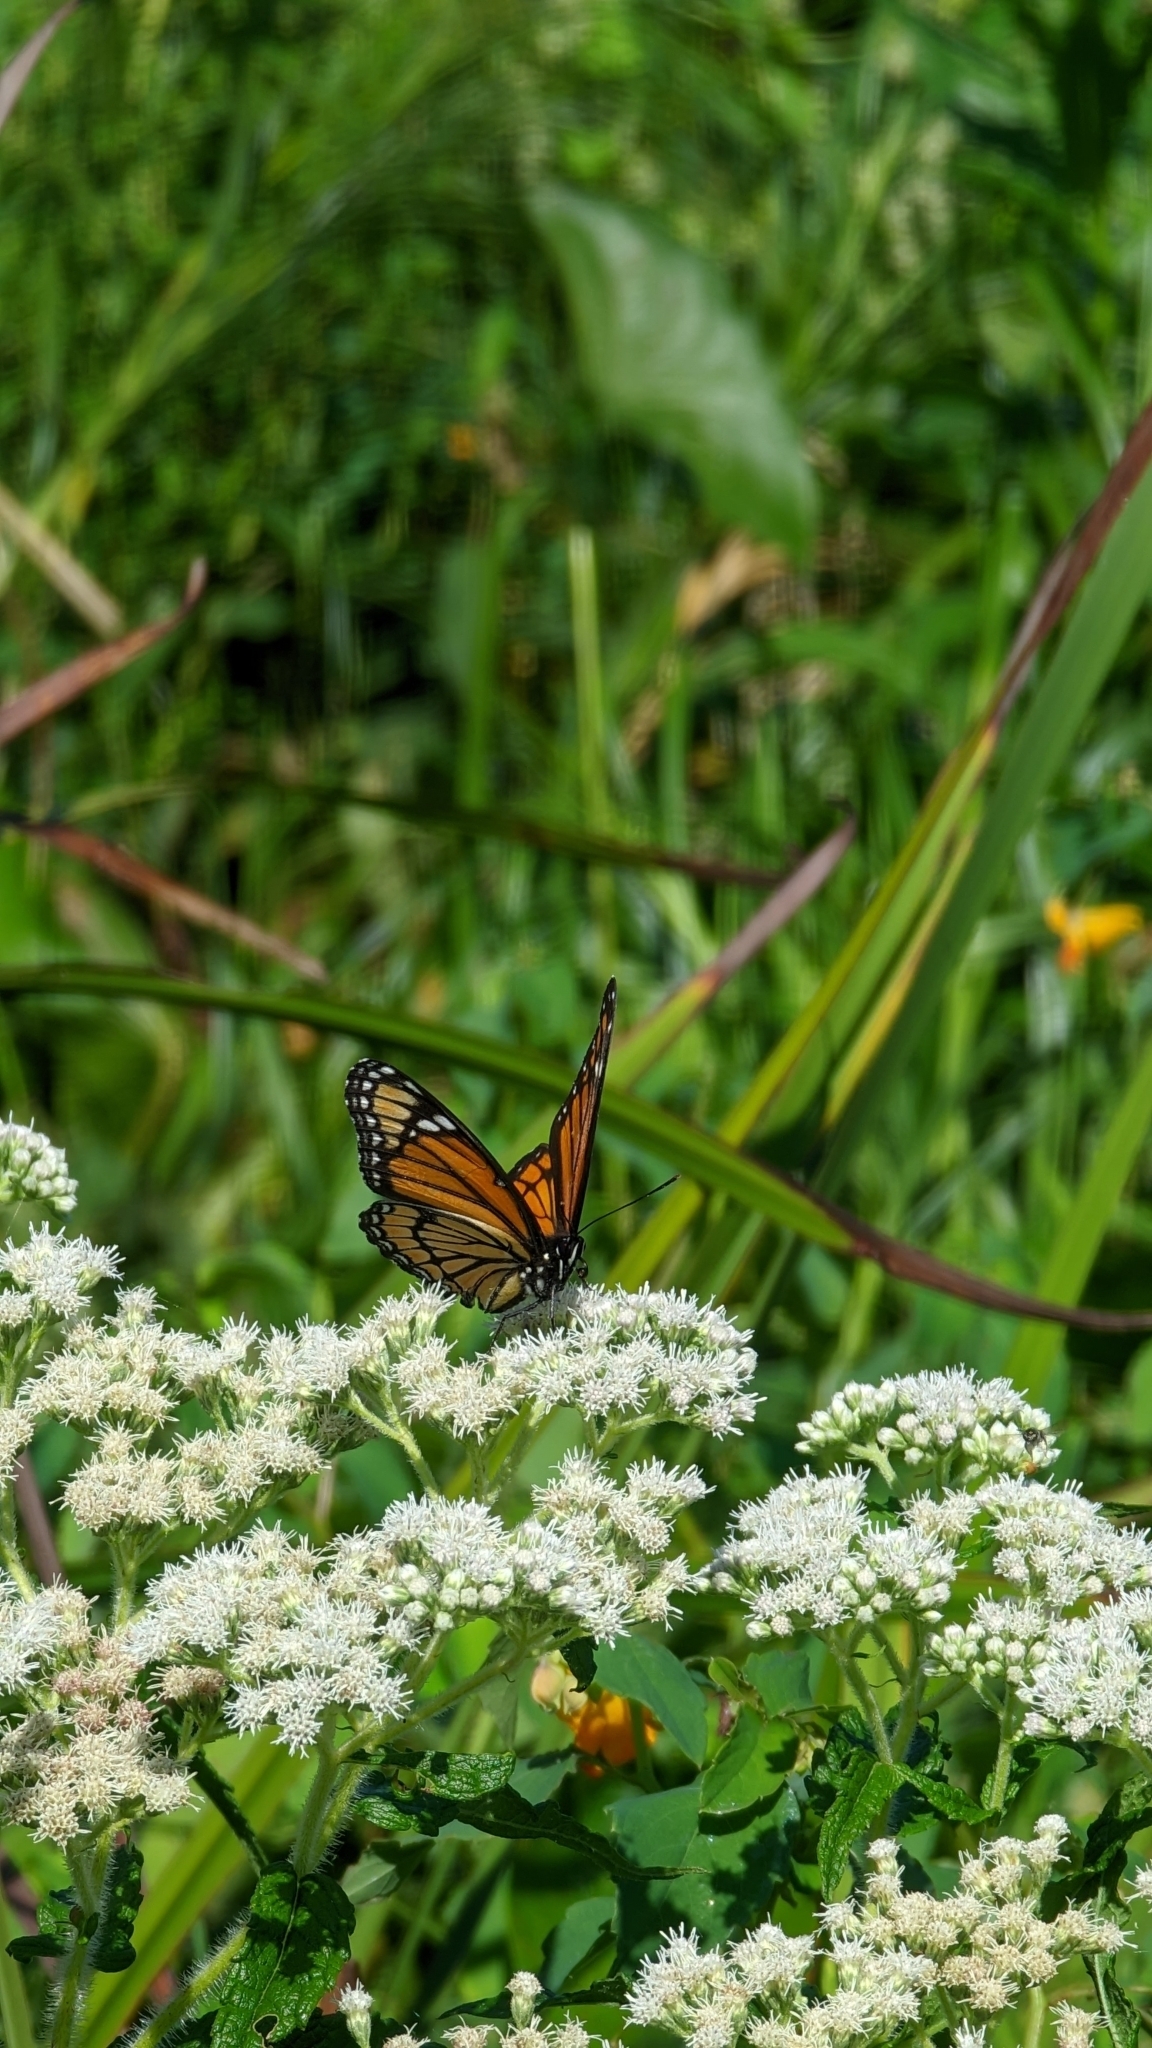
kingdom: Animalia
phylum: Arthropoda
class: Insecta
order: Lepidoptera
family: Nymphalidae
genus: Limenitis
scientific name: Limenitis archippus
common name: Viceroy
